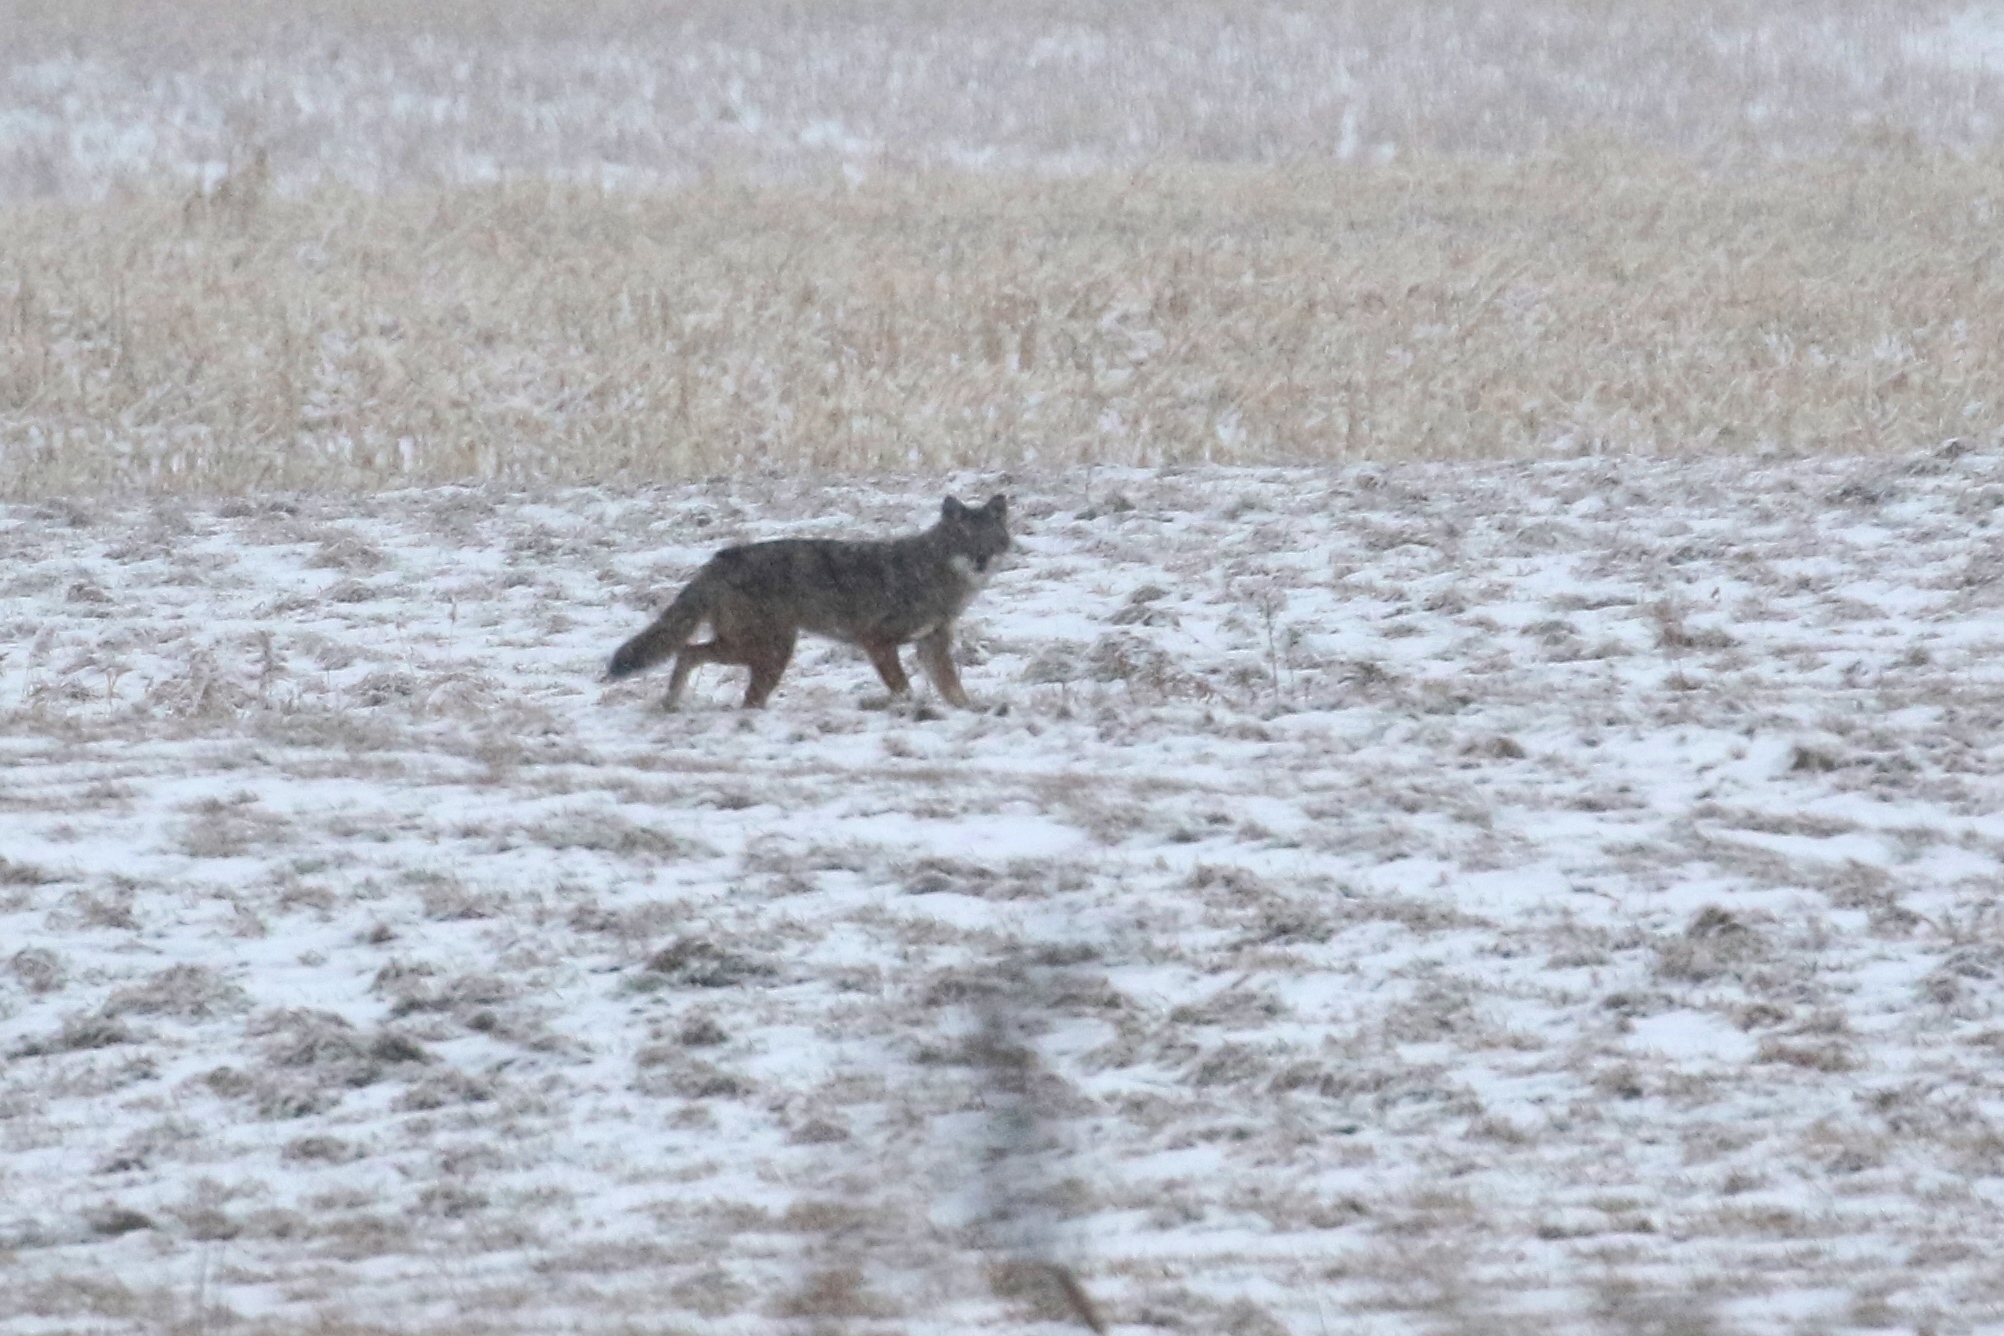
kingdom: Animalia
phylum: Chordata
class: Mammalia
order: Carnivora
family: Canidae
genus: Canis
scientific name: Canis latrans
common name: Coyote
